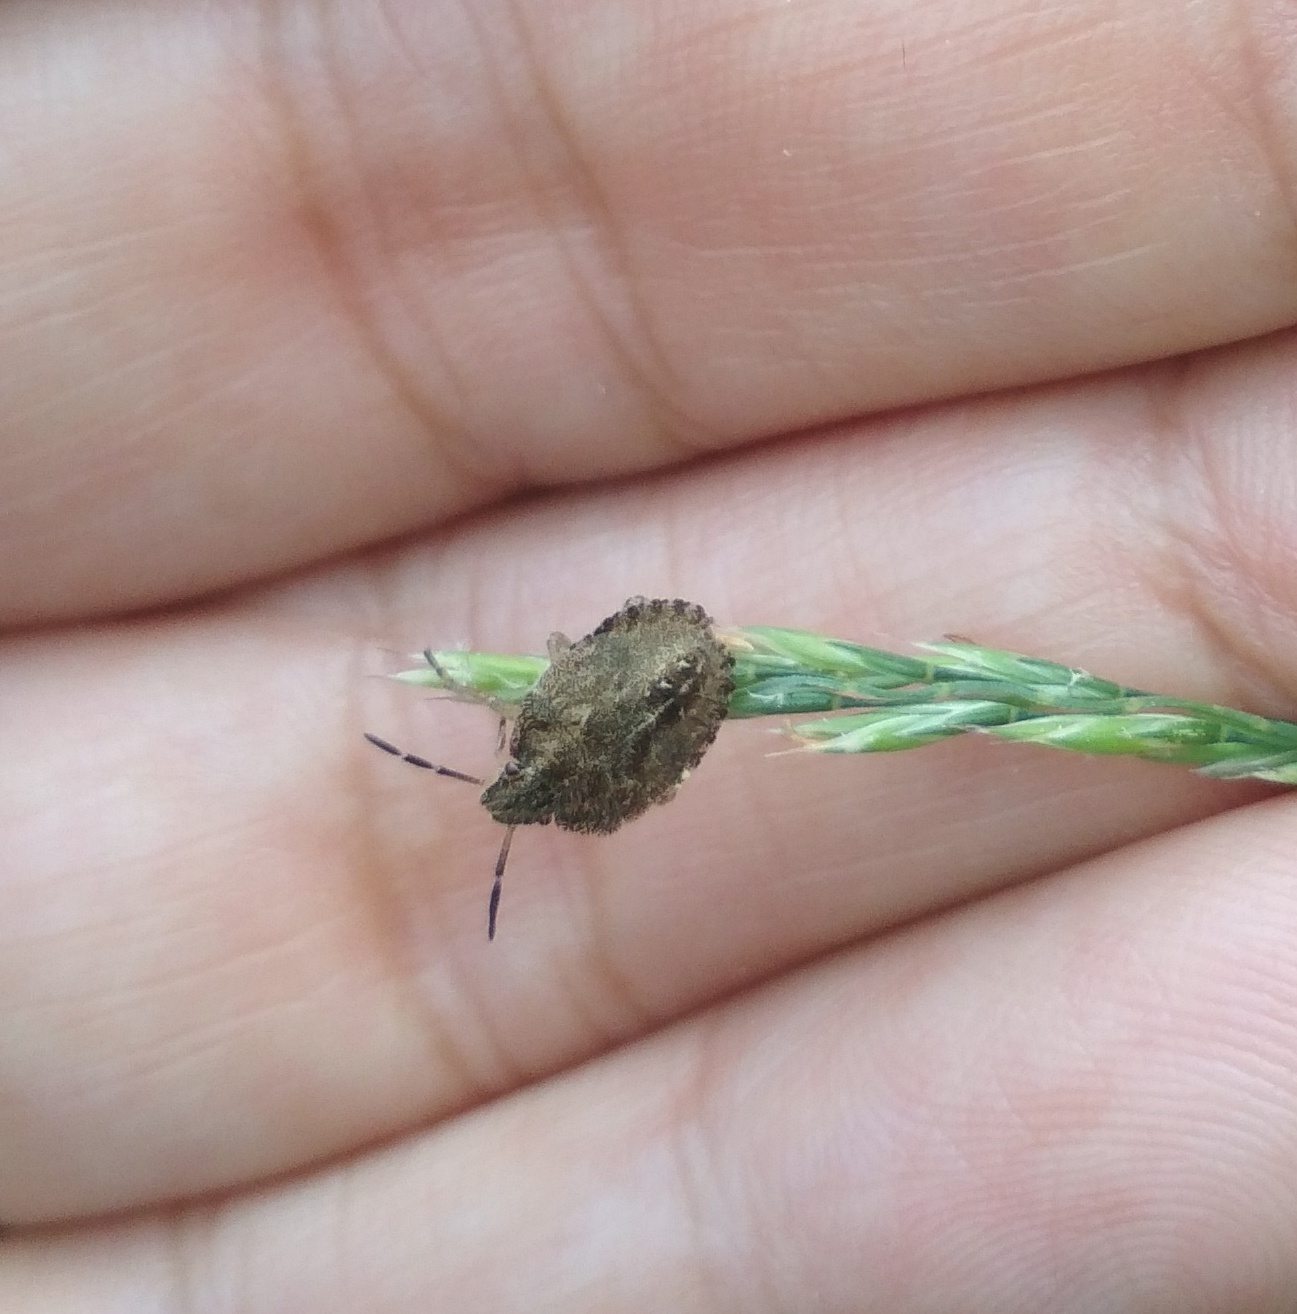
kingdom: Animalia
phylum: Arthropoda
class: Insecta
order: Hemiptera
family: Pentatomidae
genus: Dolycoris
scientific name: Dolycoris baccarum
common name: Sloe bug
